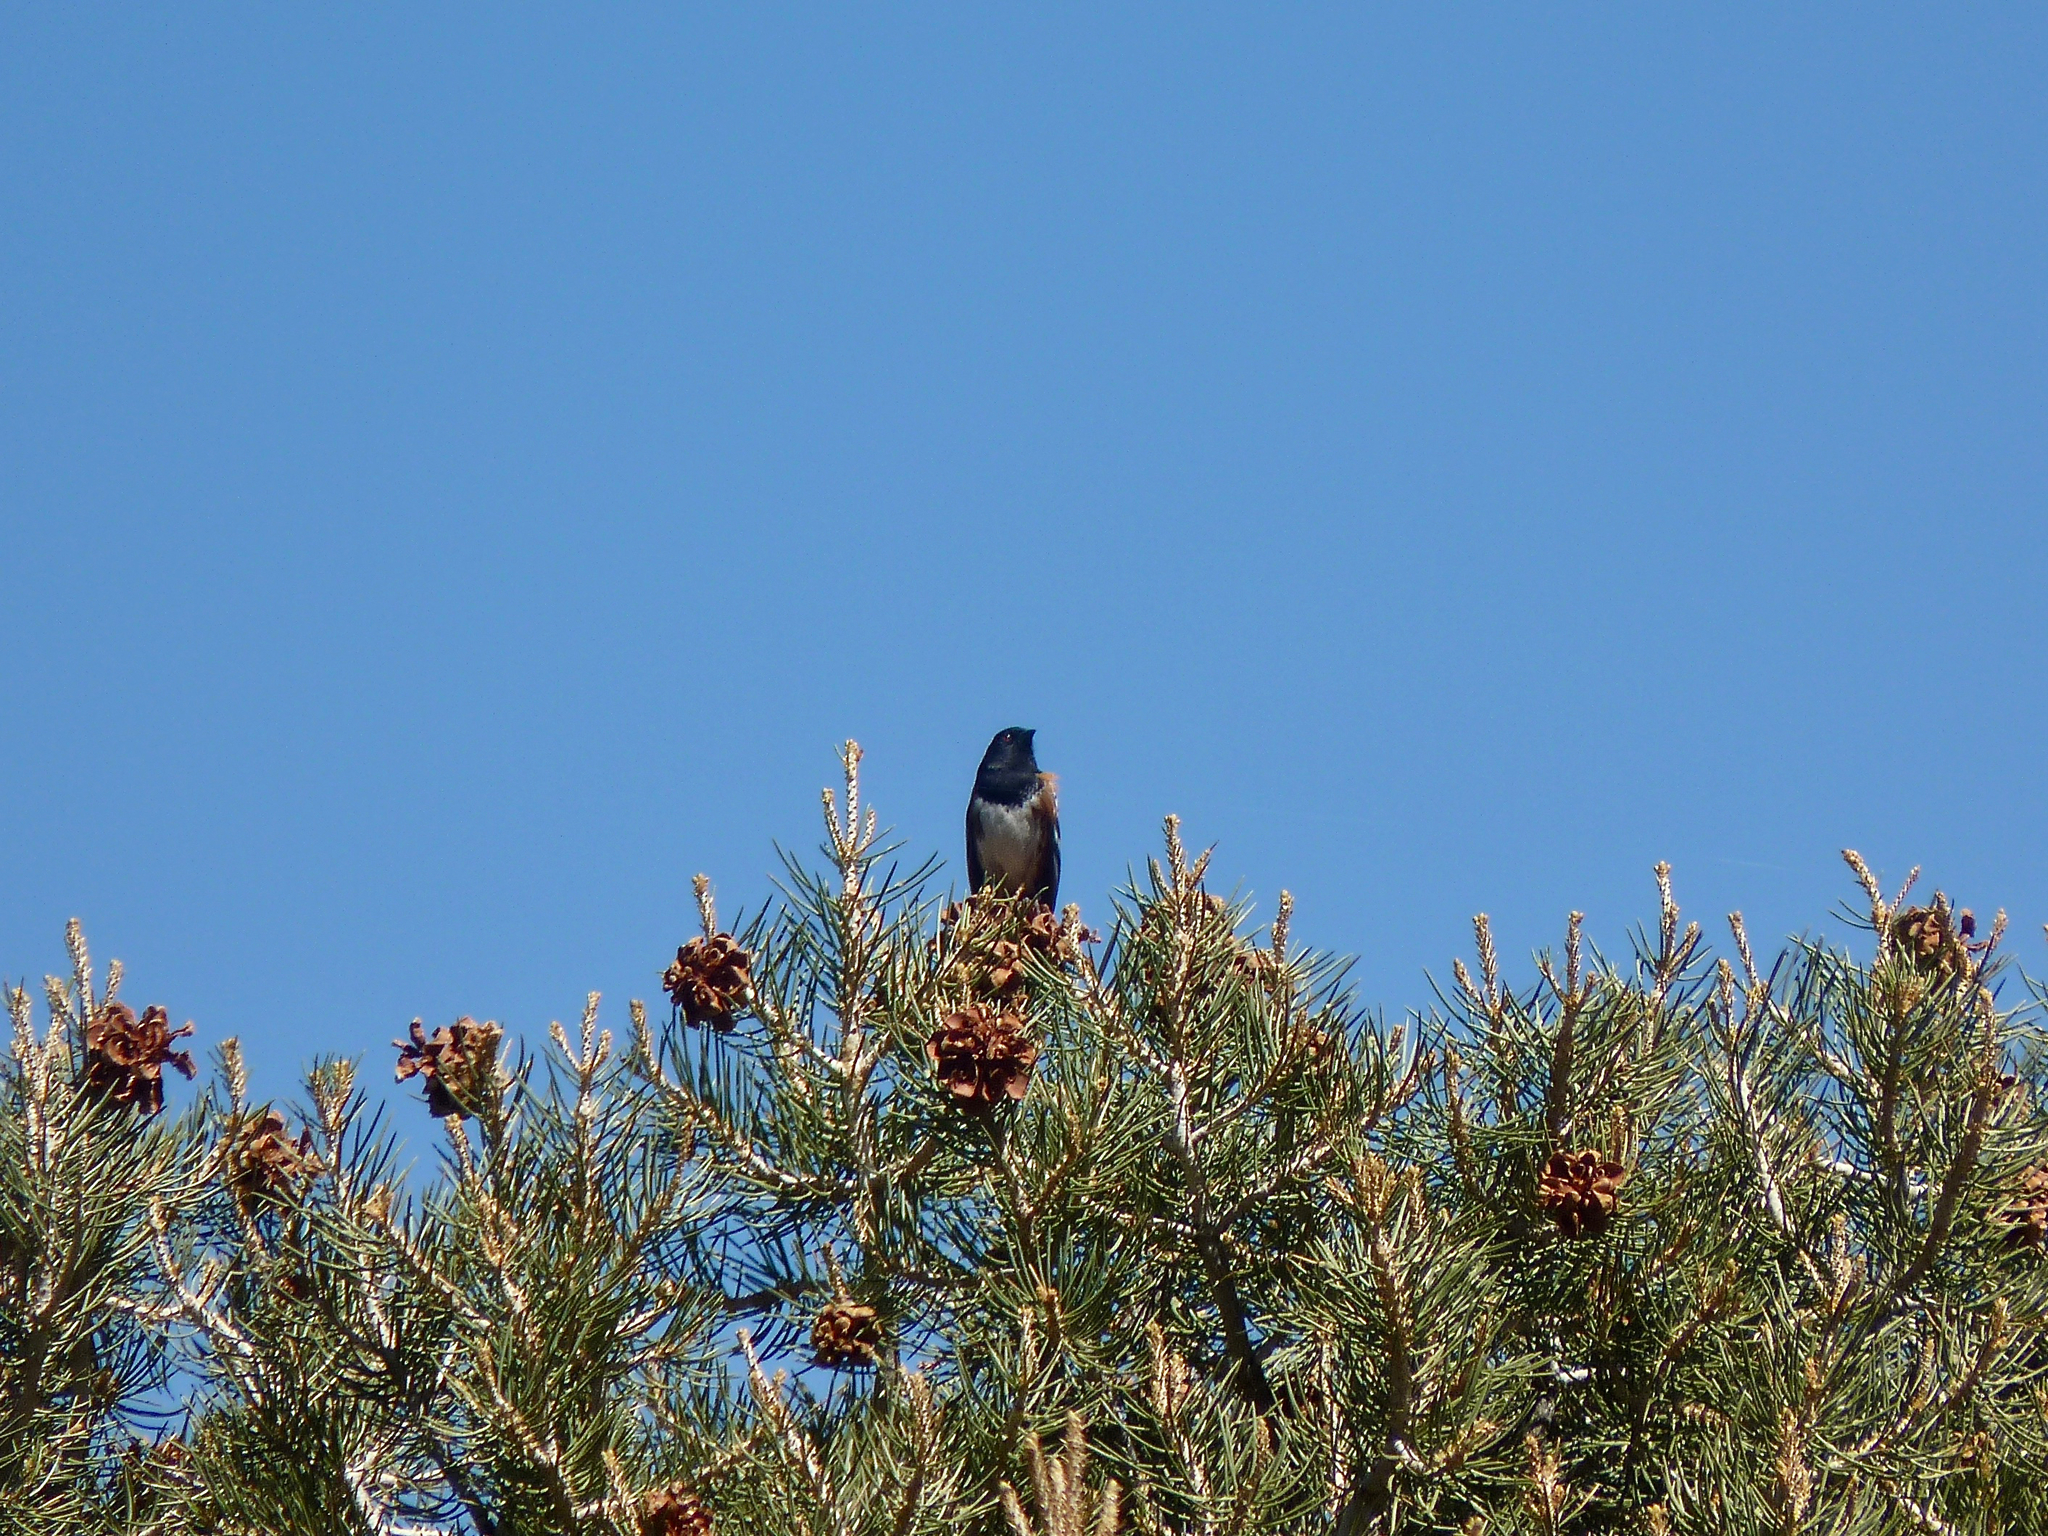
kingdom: Animalia
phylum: Chordata
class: Aves
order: Passeriformes
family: Passerellidae
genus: Pipilo
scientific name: Pipilo maculatus
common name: Spotted towhee
